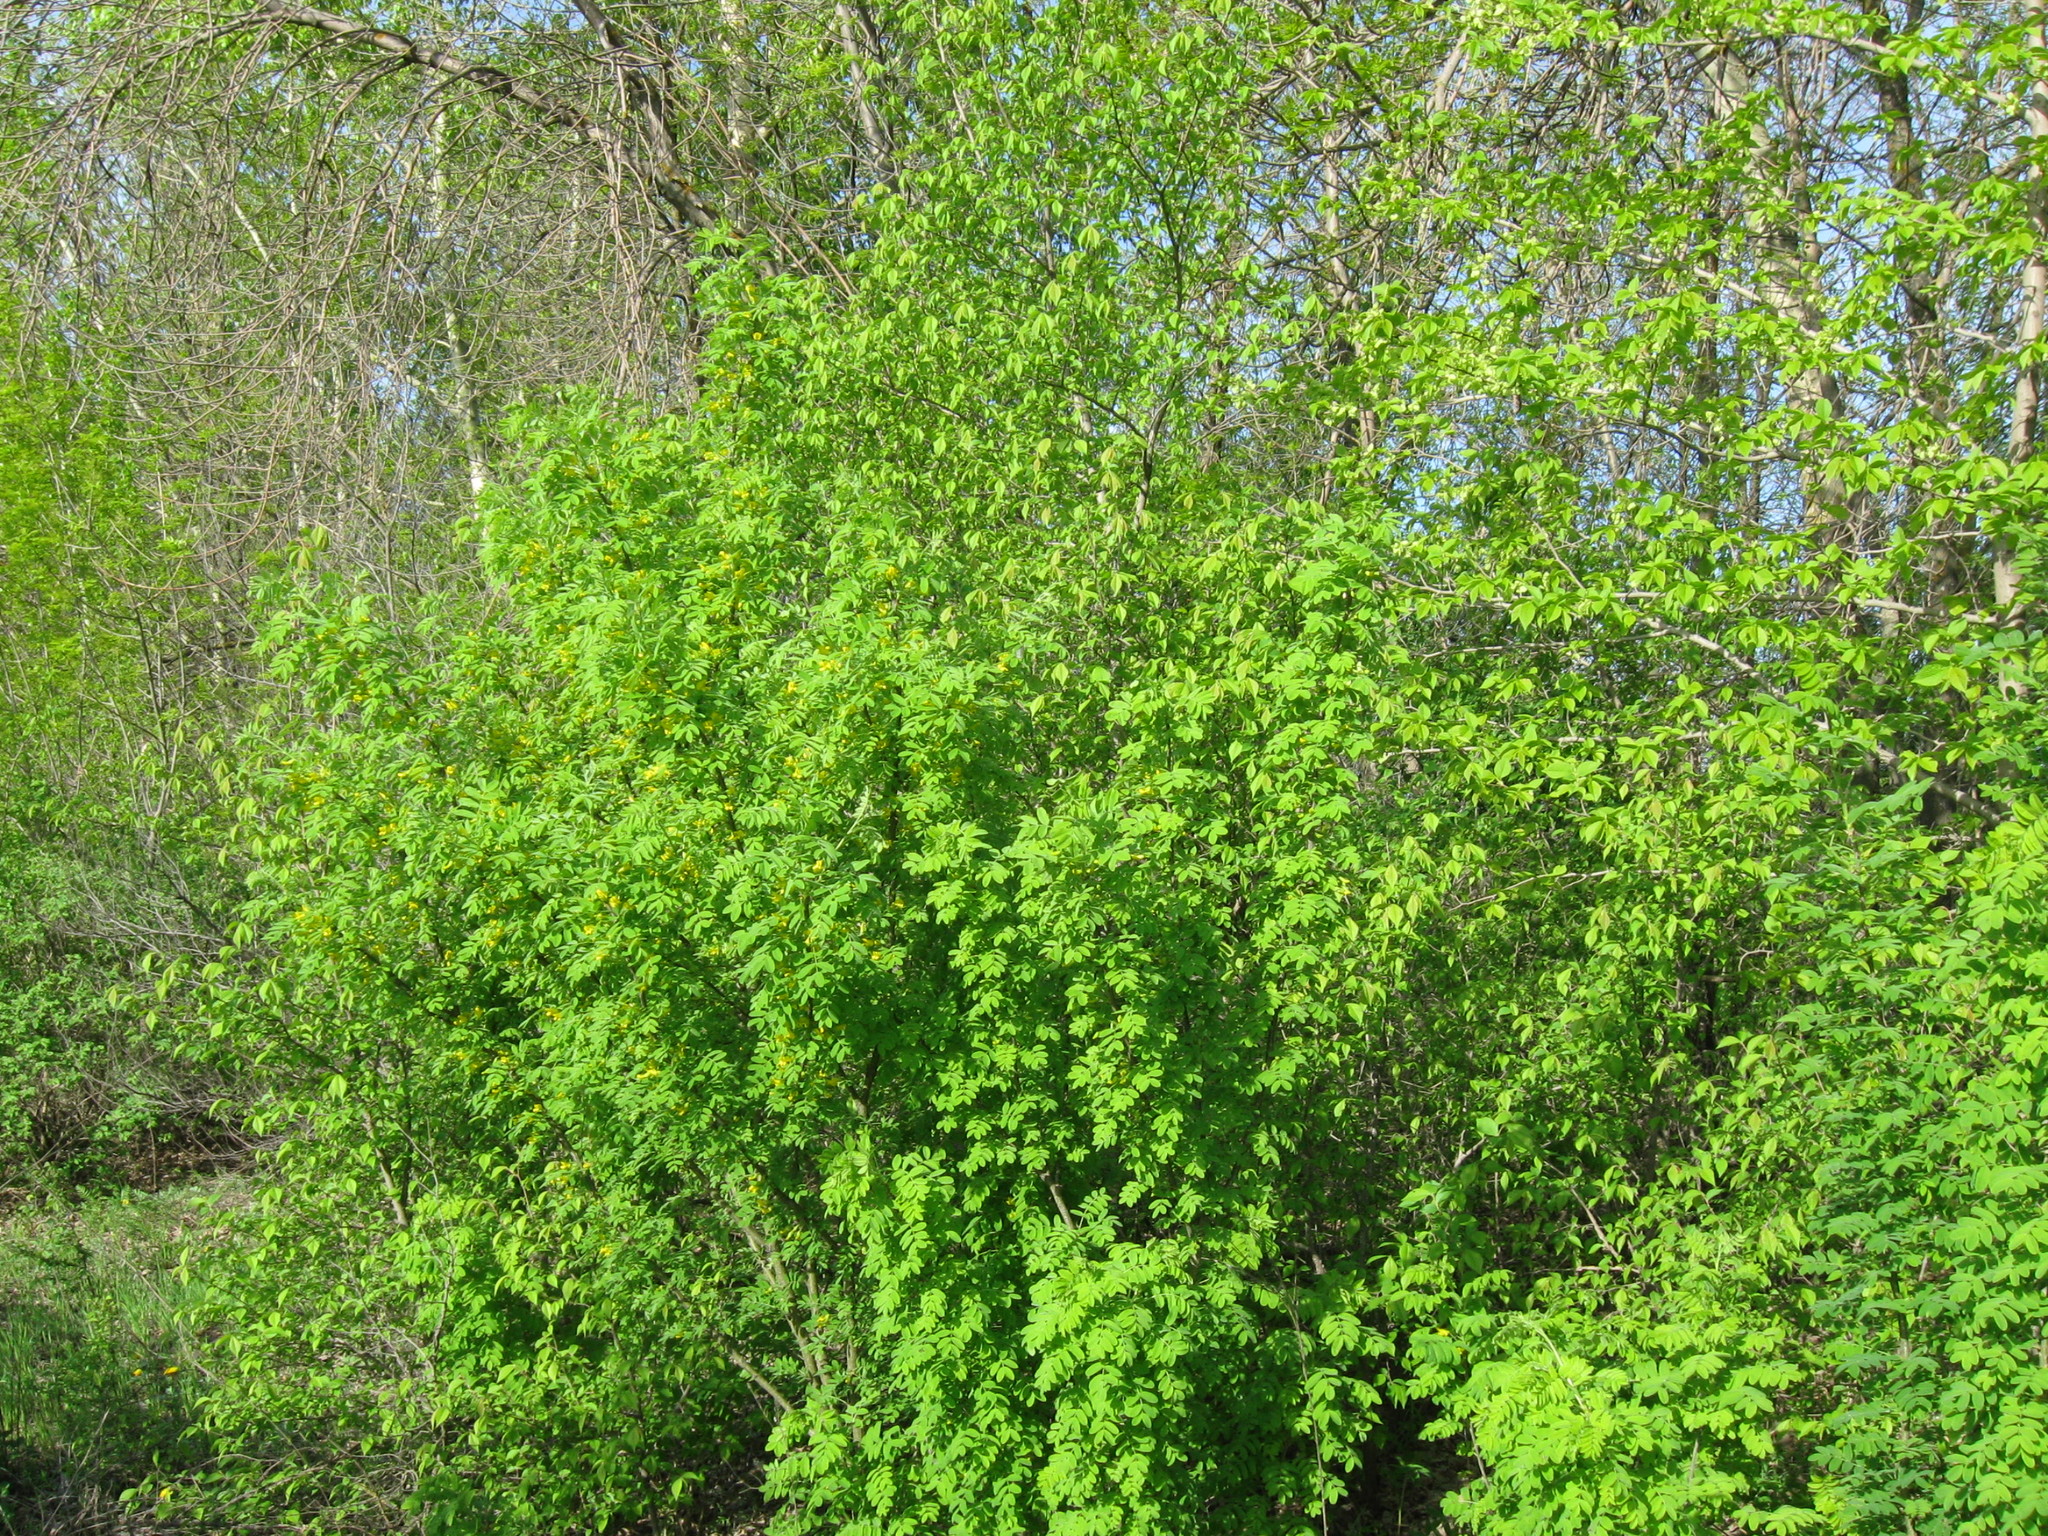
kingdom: Plantae
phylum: Tracheophyta
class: Magnoliopsida
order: Fabales
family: Fabaceae
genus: Caragana
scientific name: Caragana arborescens
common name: Siberian peashrub
